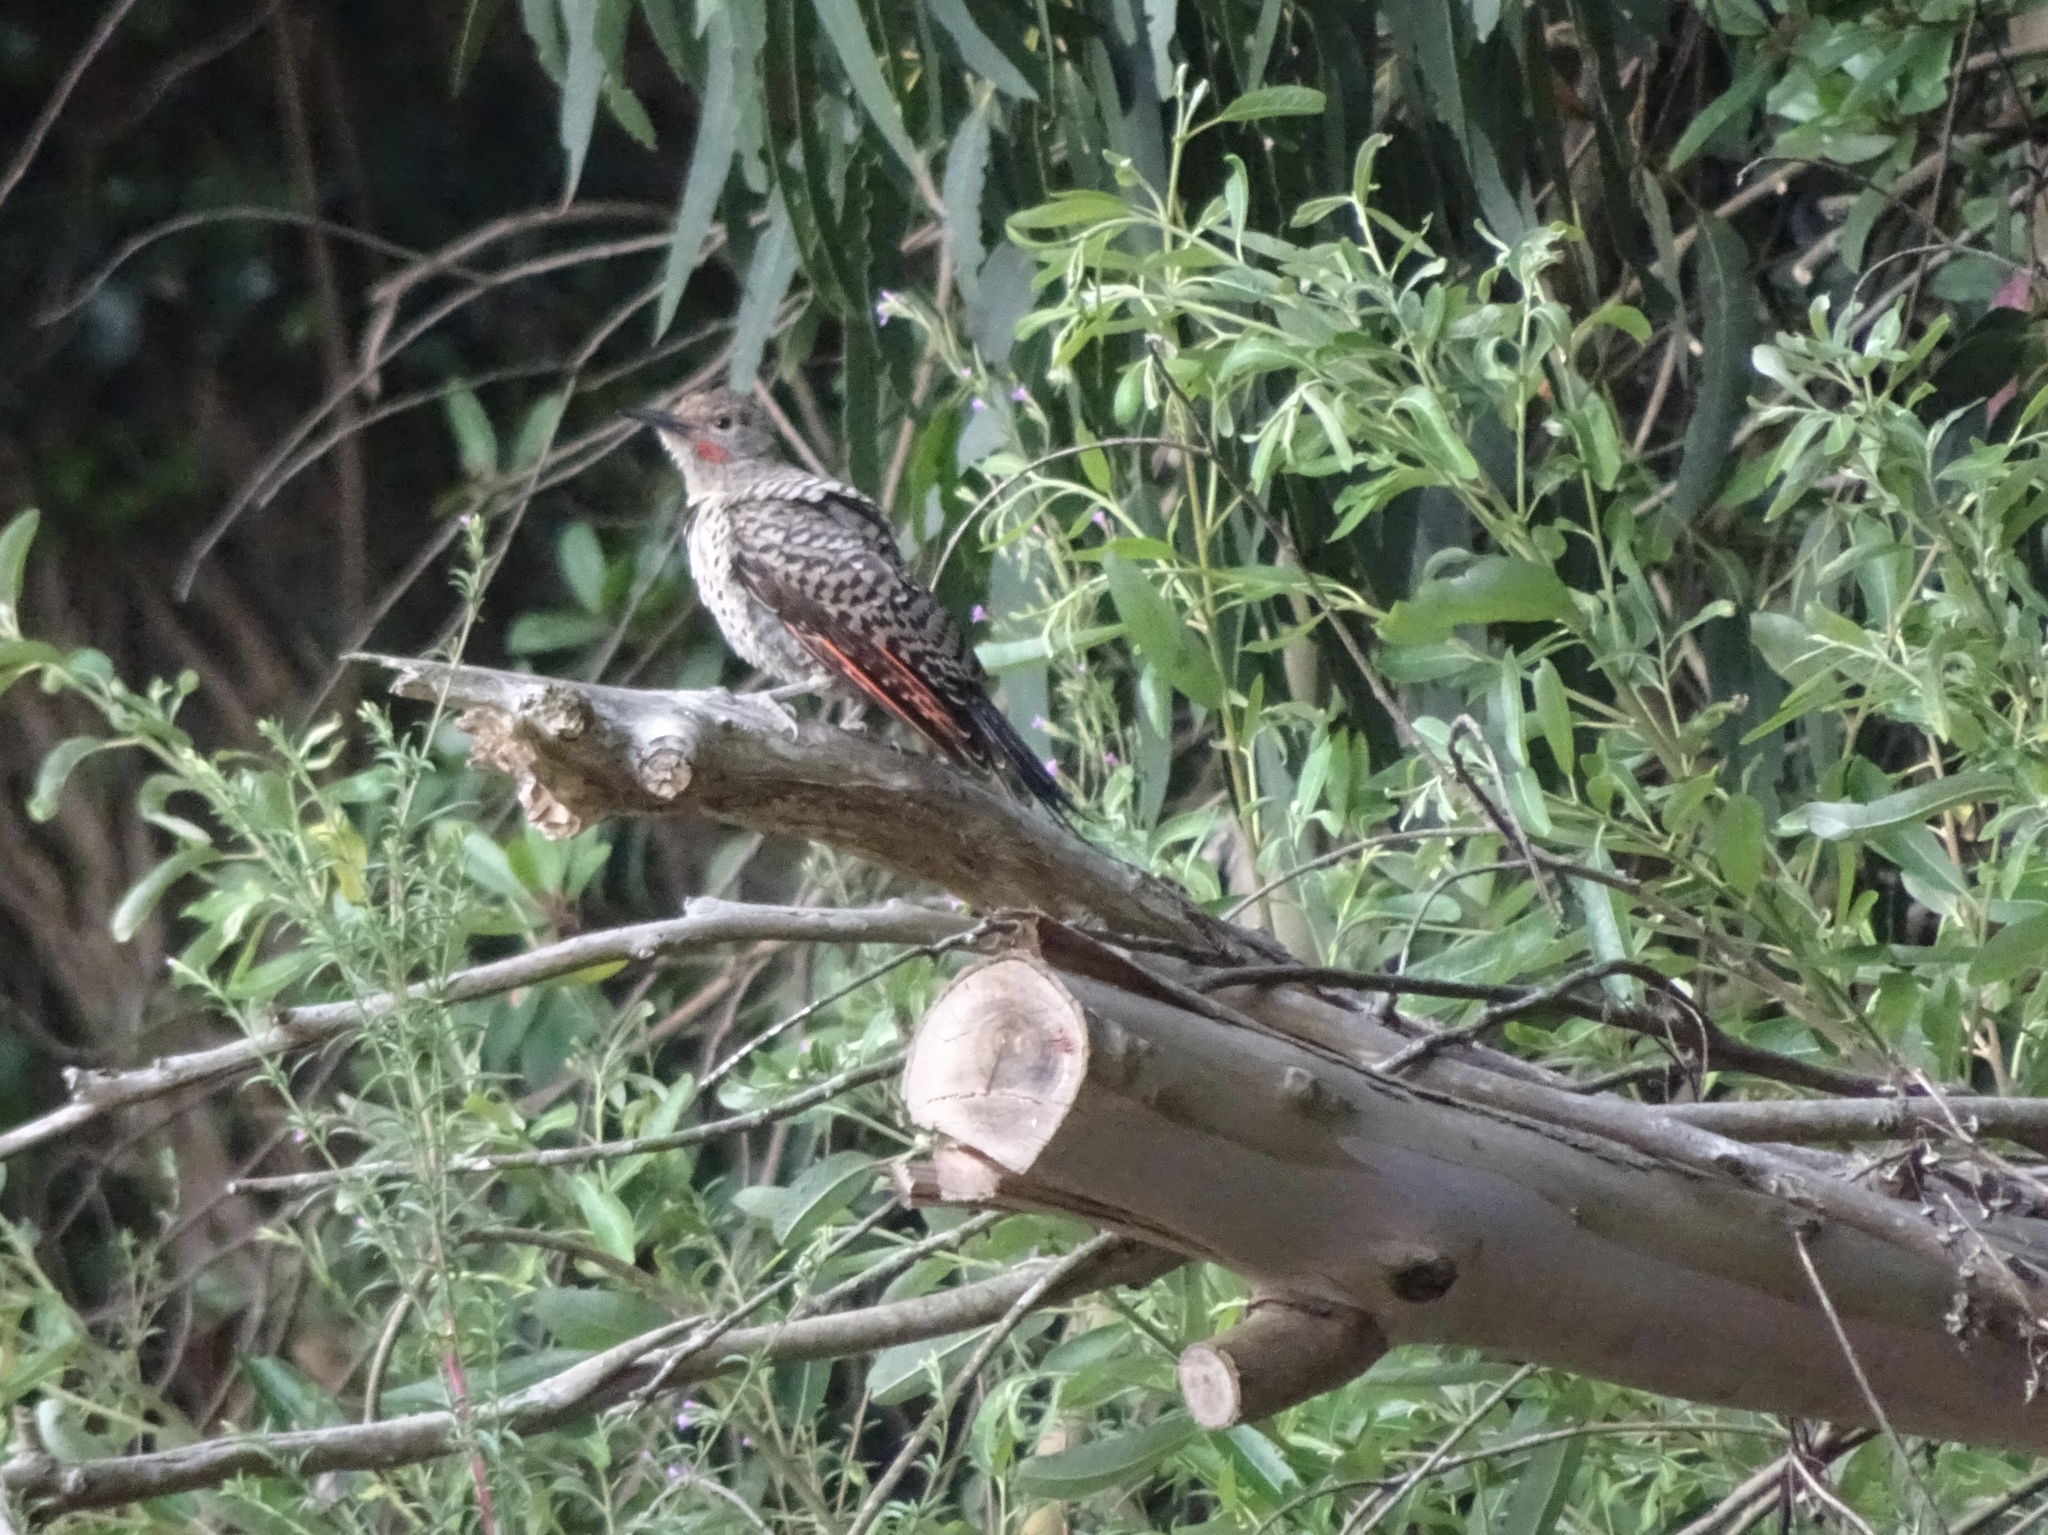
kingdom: Animalia
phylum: Chordata
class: Aves
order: Piciformes
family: Picidae
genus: Colaptes
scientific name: Colaptes auratus
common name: Northern flicker
